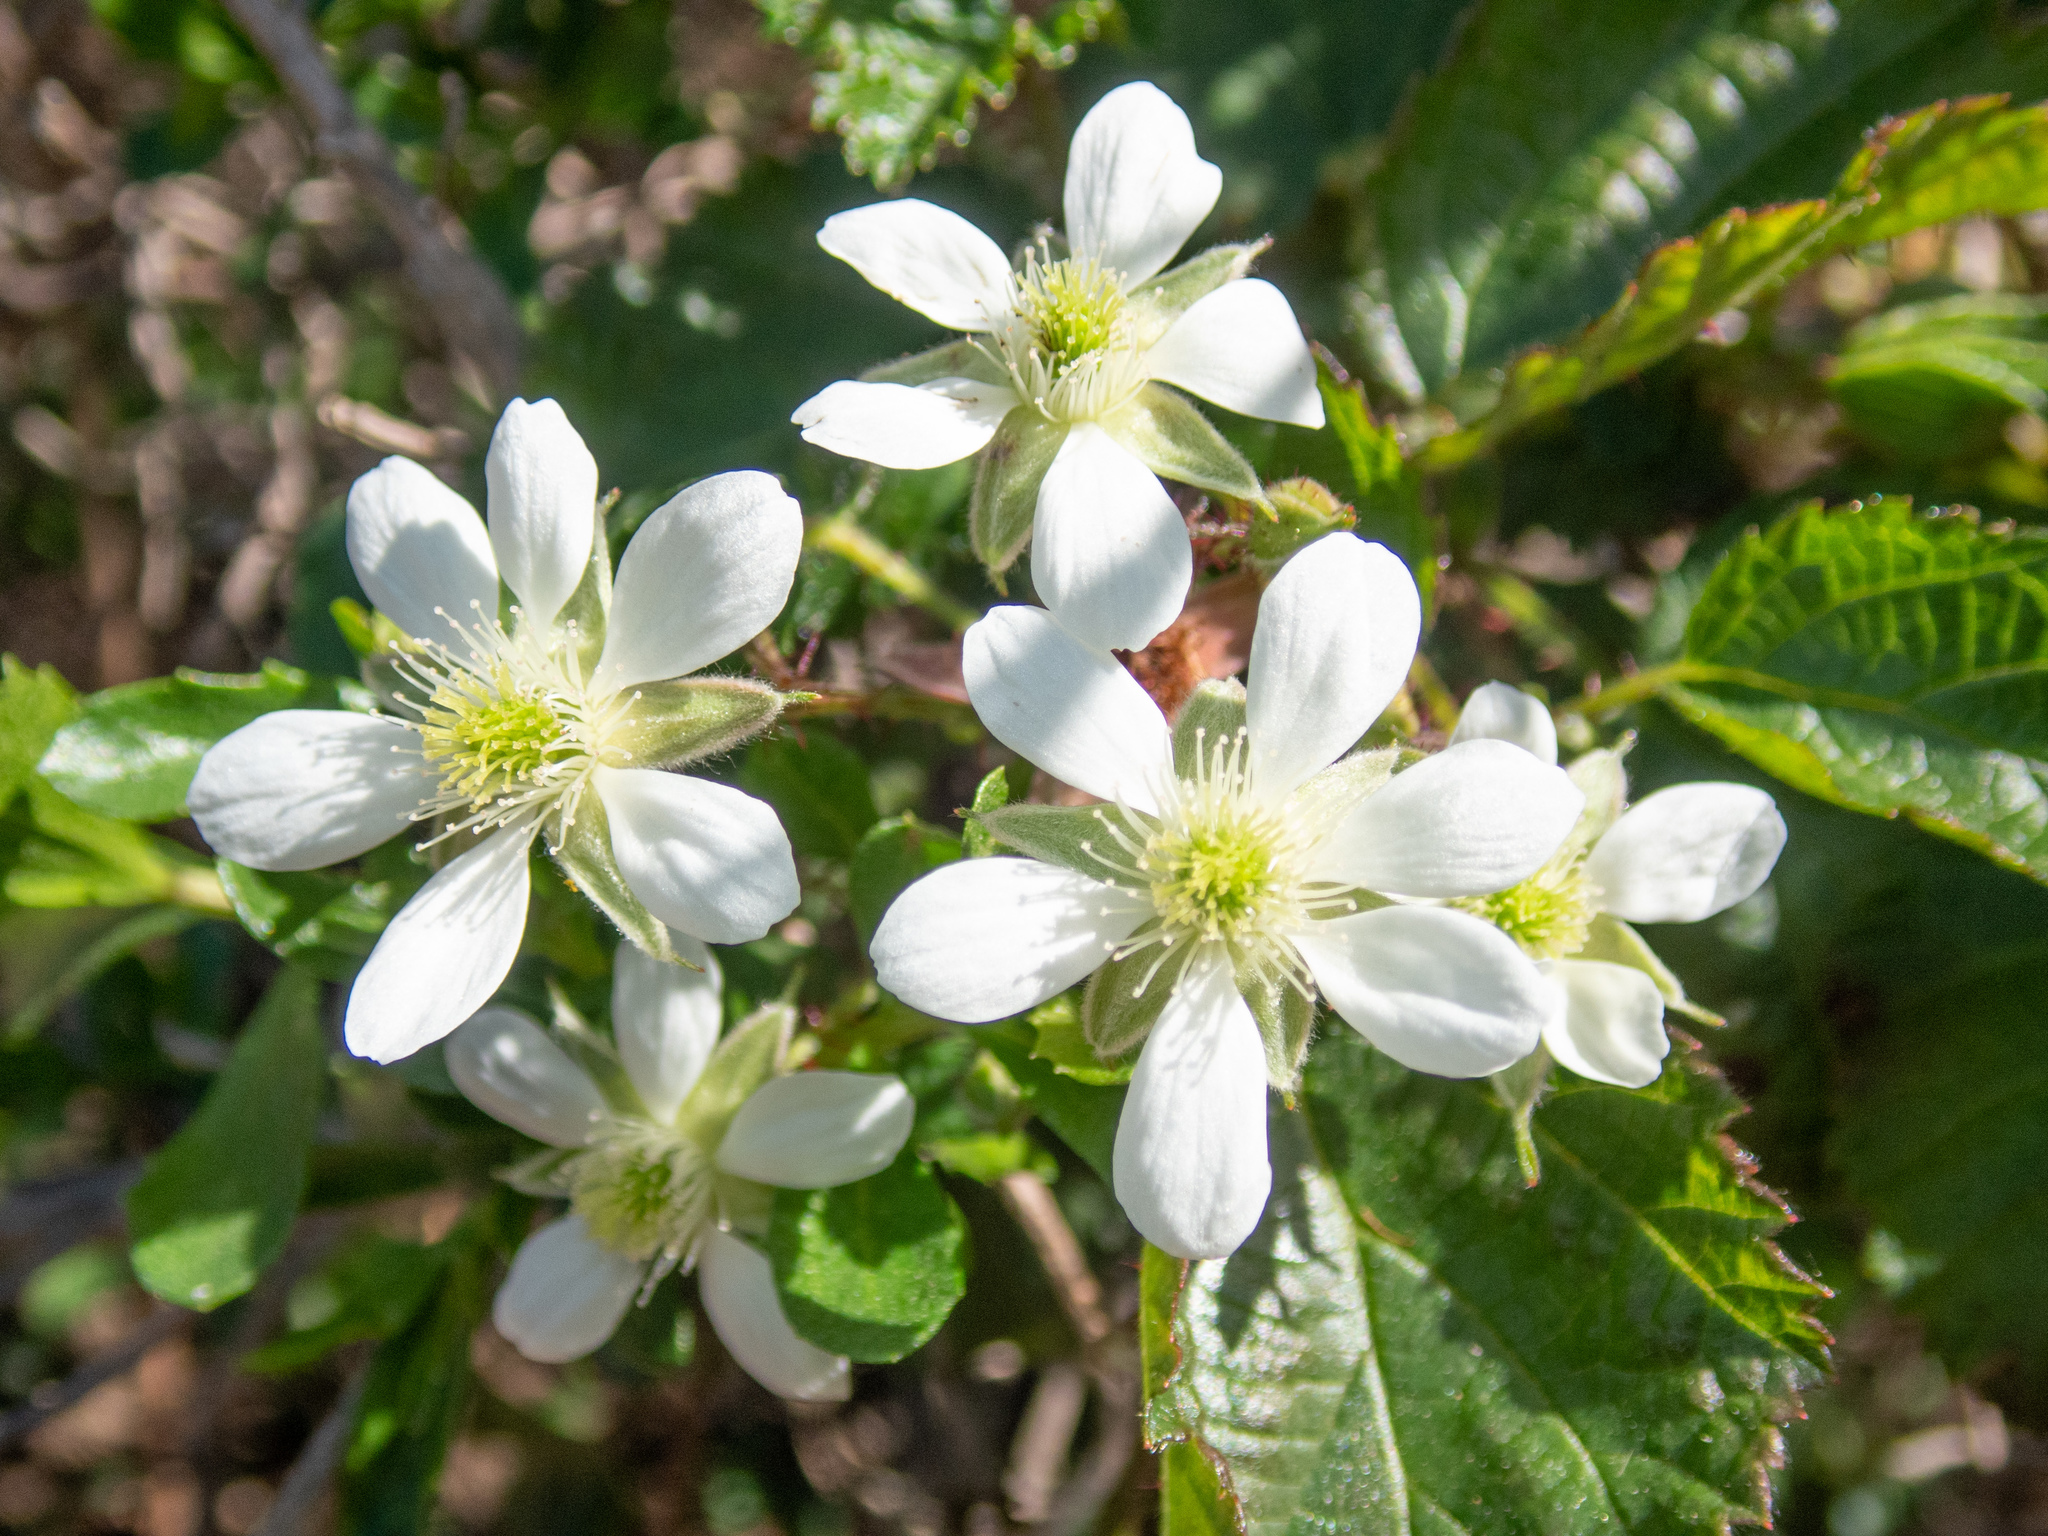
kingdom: Plantae
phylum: Tracheophyta
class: Magnoliopsida
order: Rosales
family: Rosaceae
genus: Rubus
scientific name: Rubus ursinus
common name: Pacific blackberry
